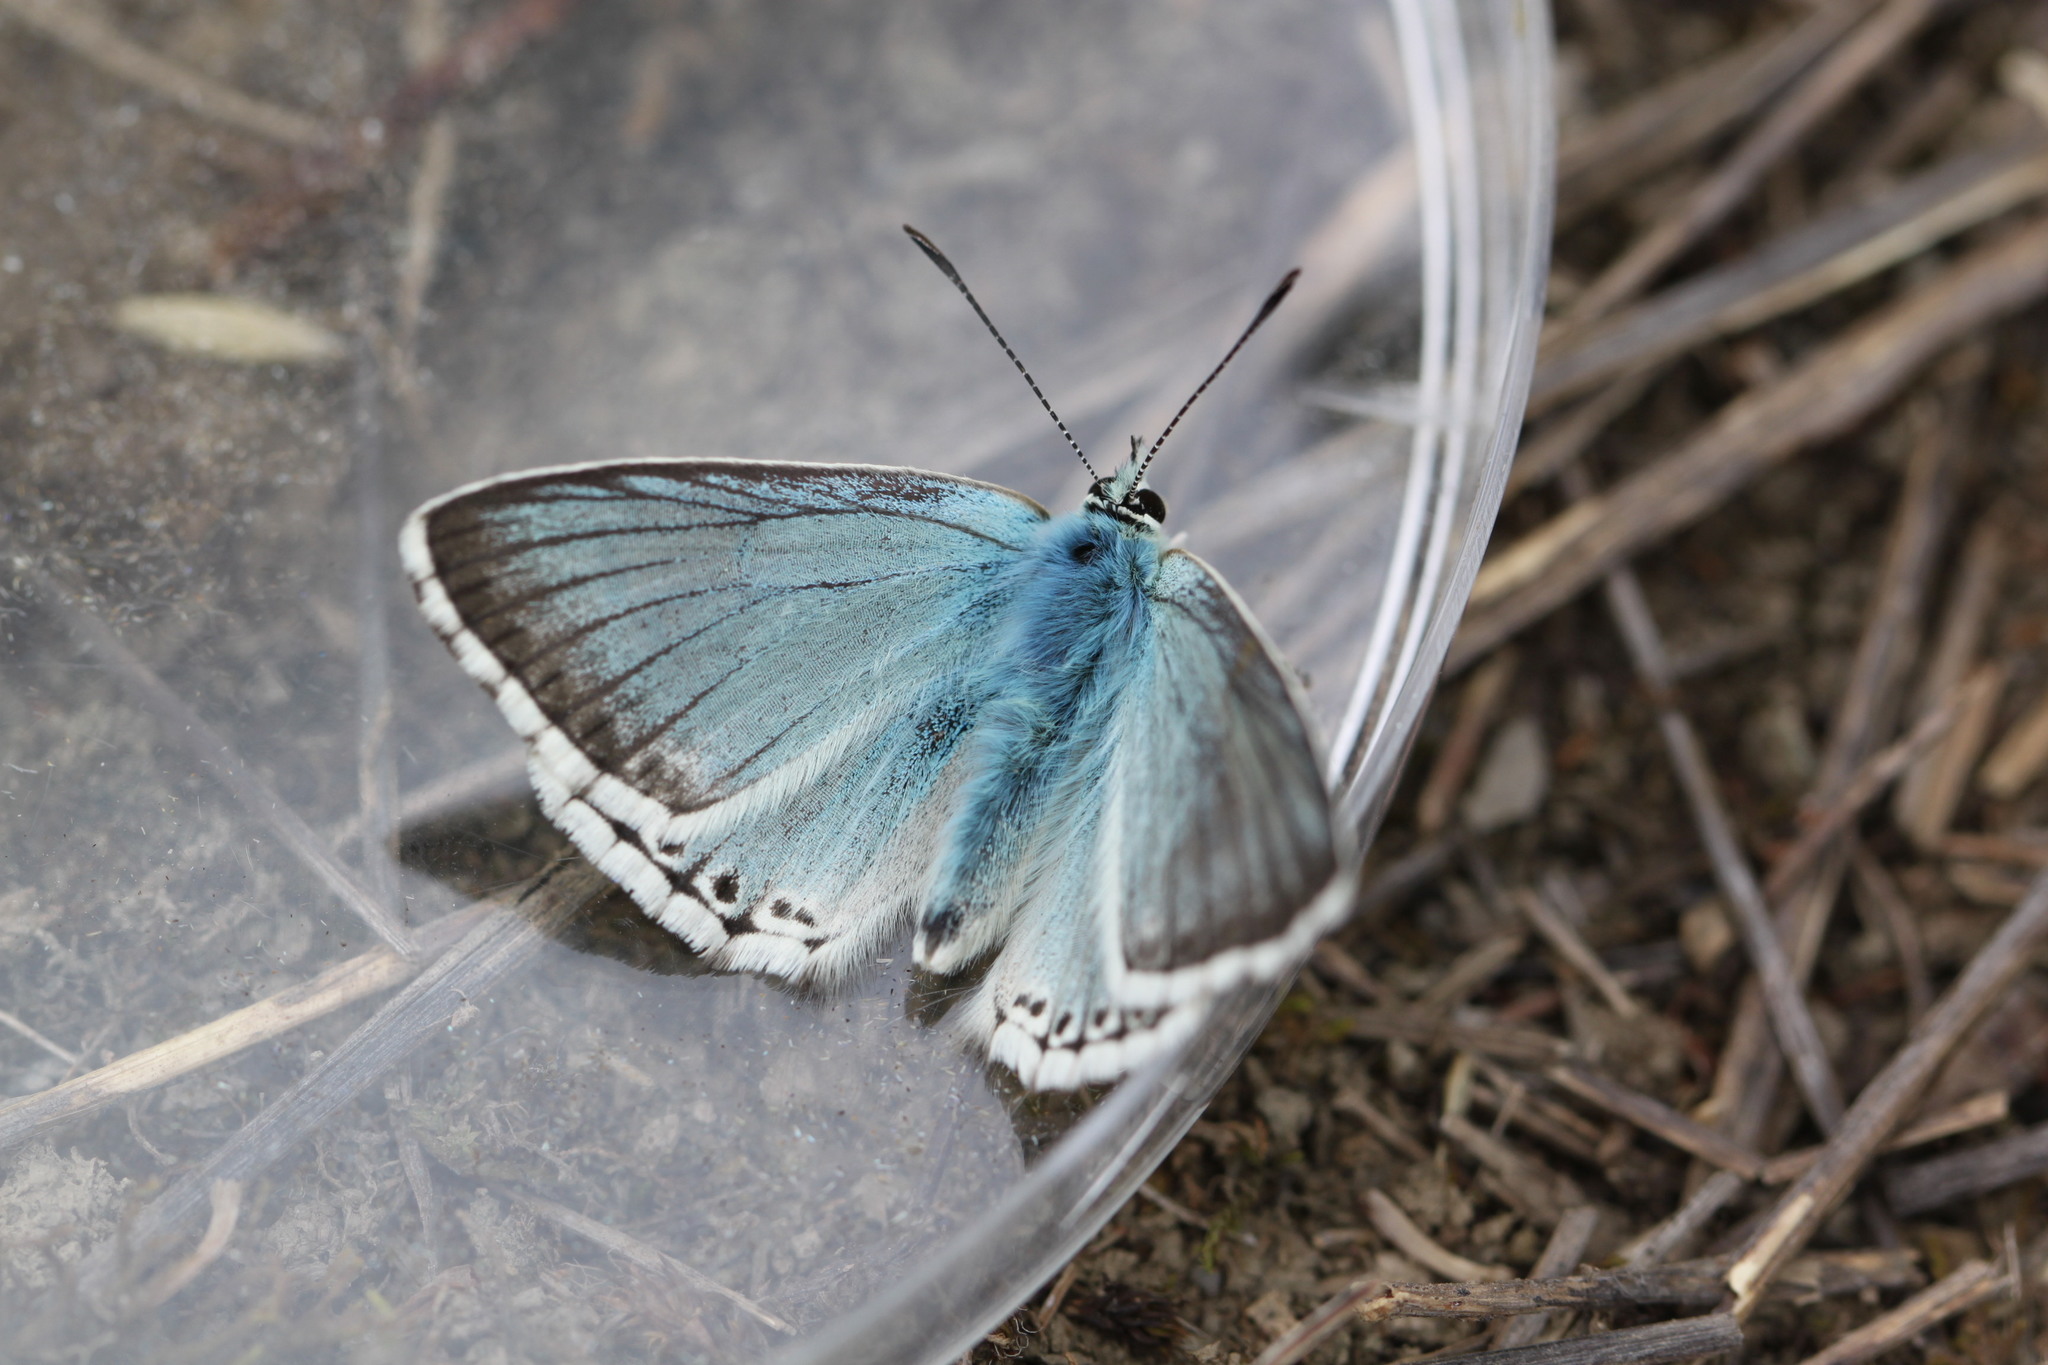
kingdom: Animalia
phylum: Arthropoda
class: Insecta
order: Lepidoptera
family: Lycaenidae
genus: Lysandra
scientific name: Lysandra coridon
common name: Chalkhill blue
